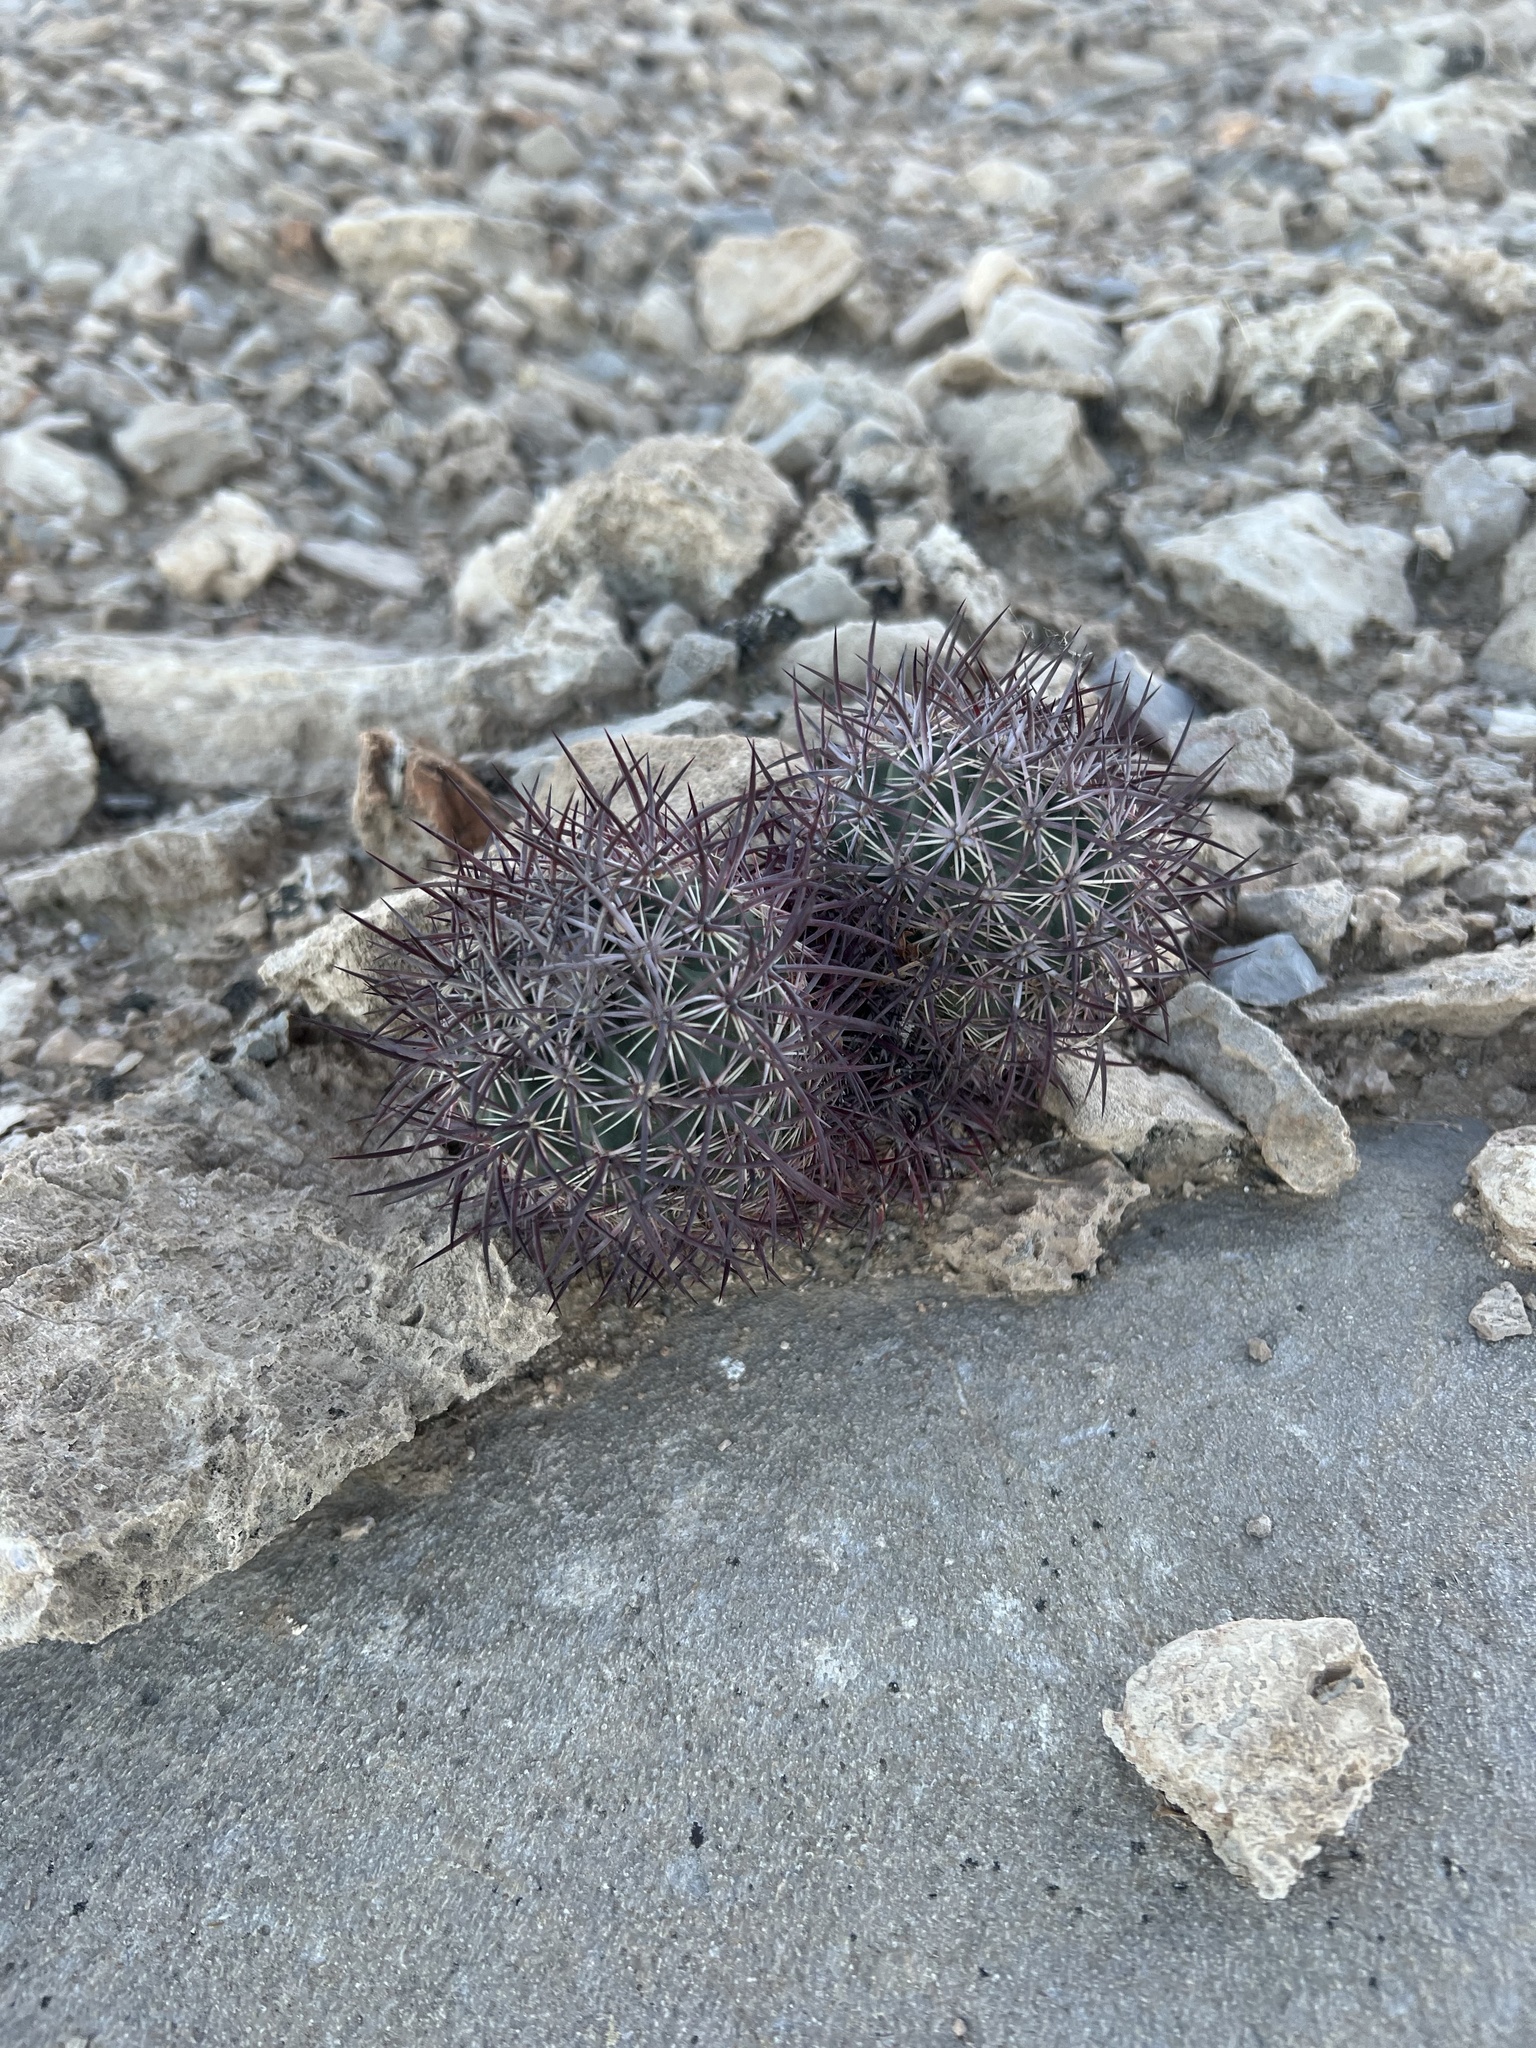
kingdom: Plantae
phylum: Tracheophyta
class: Magnoliopsida
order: Caryophyllales
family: Cactaceae
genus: Sclerocactus
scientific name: Sclerocactus johnsonii
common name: Eight-spine fishhook cactus
